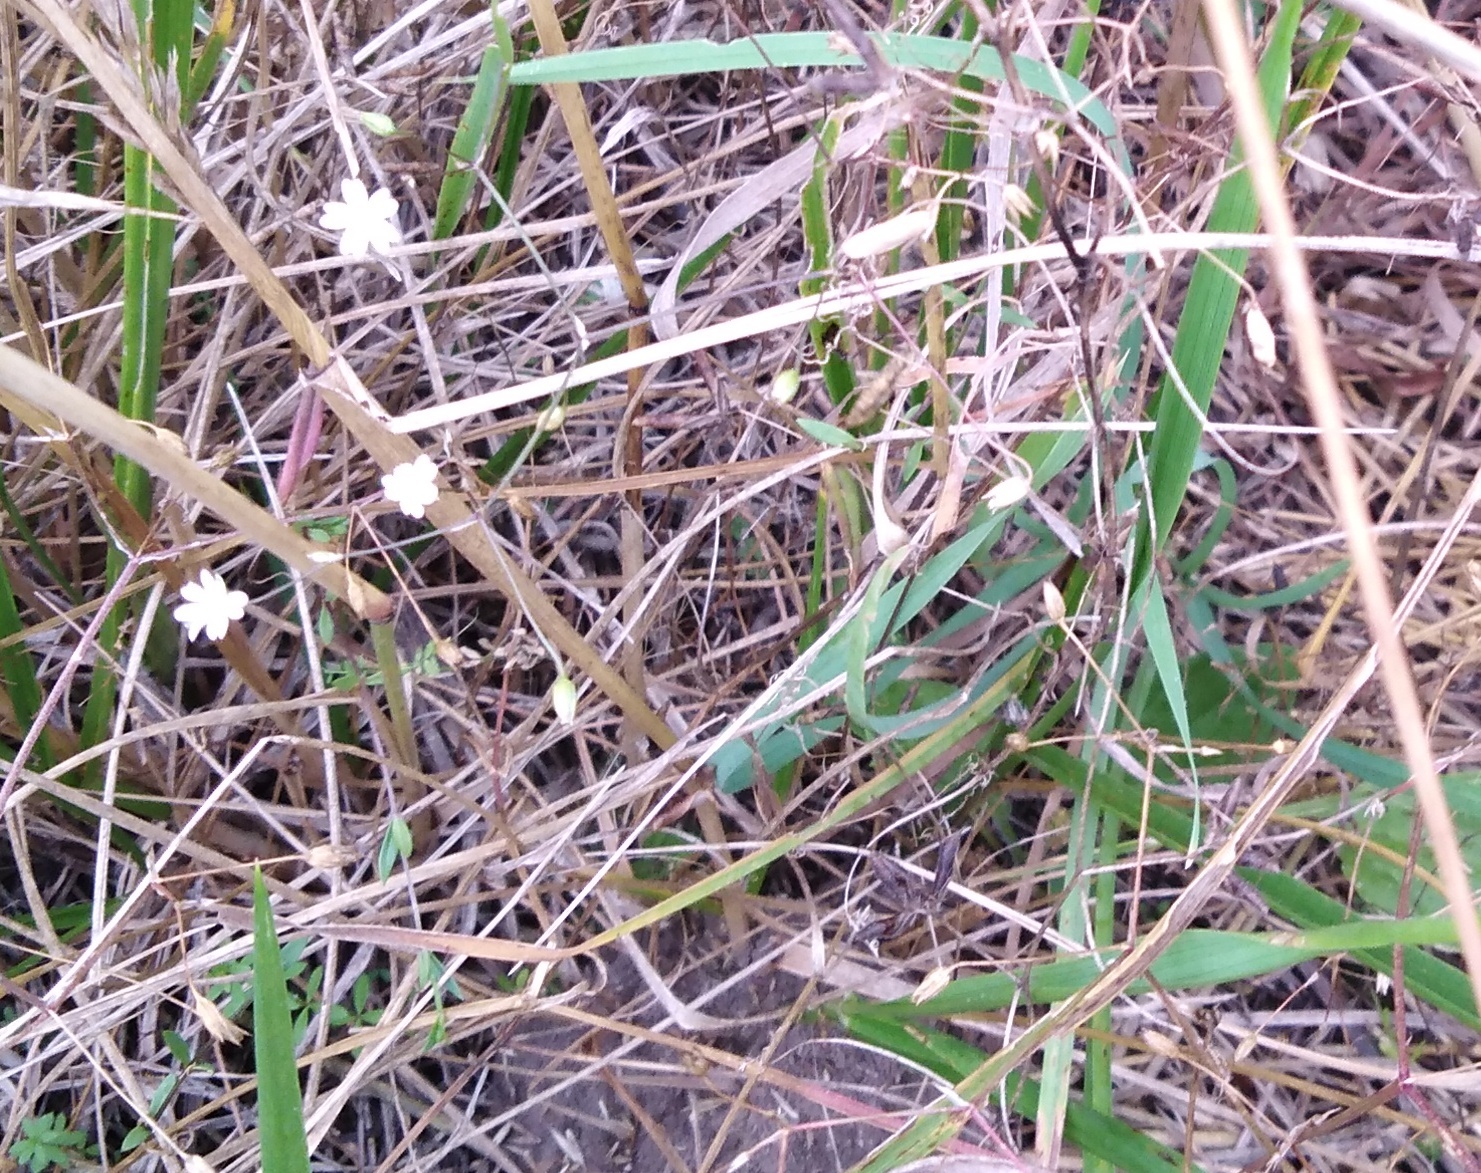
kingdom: Plantae
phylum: Tracheophyta
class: Magnoliopsida
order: Caryophyllales
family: Caryophyllaceae
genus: Stellaria
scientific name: Stellaria graminea
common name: Grass-like starwort
